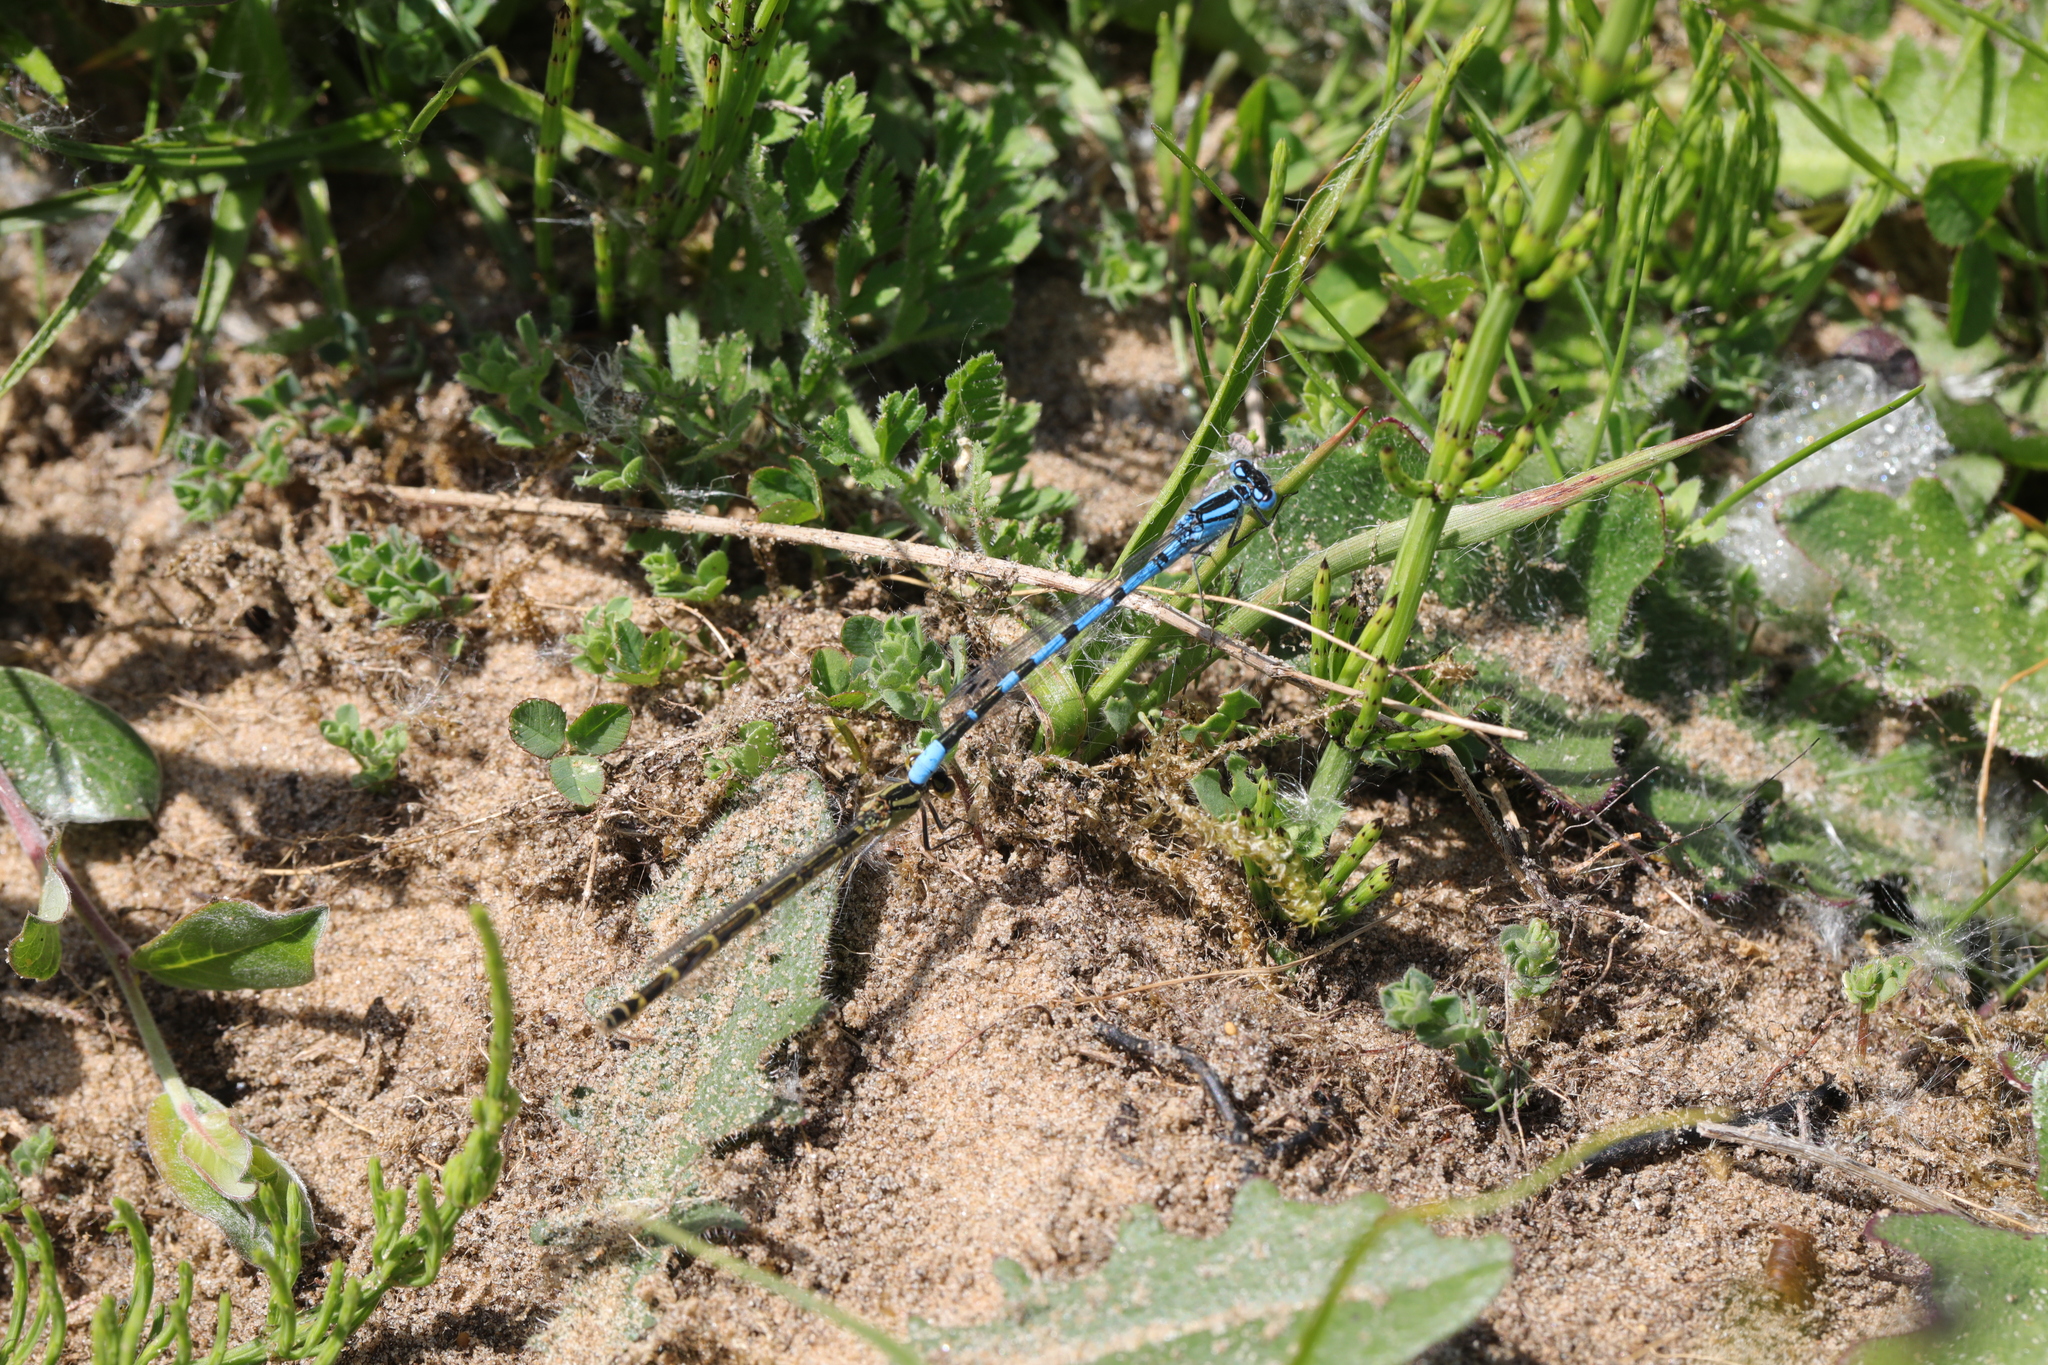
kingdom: Animalia
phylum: Arthropoda
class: Insecta
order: Odonata
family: Coenagrionidae
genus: Enallagma
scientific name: Enallagma cyathigerum
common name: Common blue damselfly
